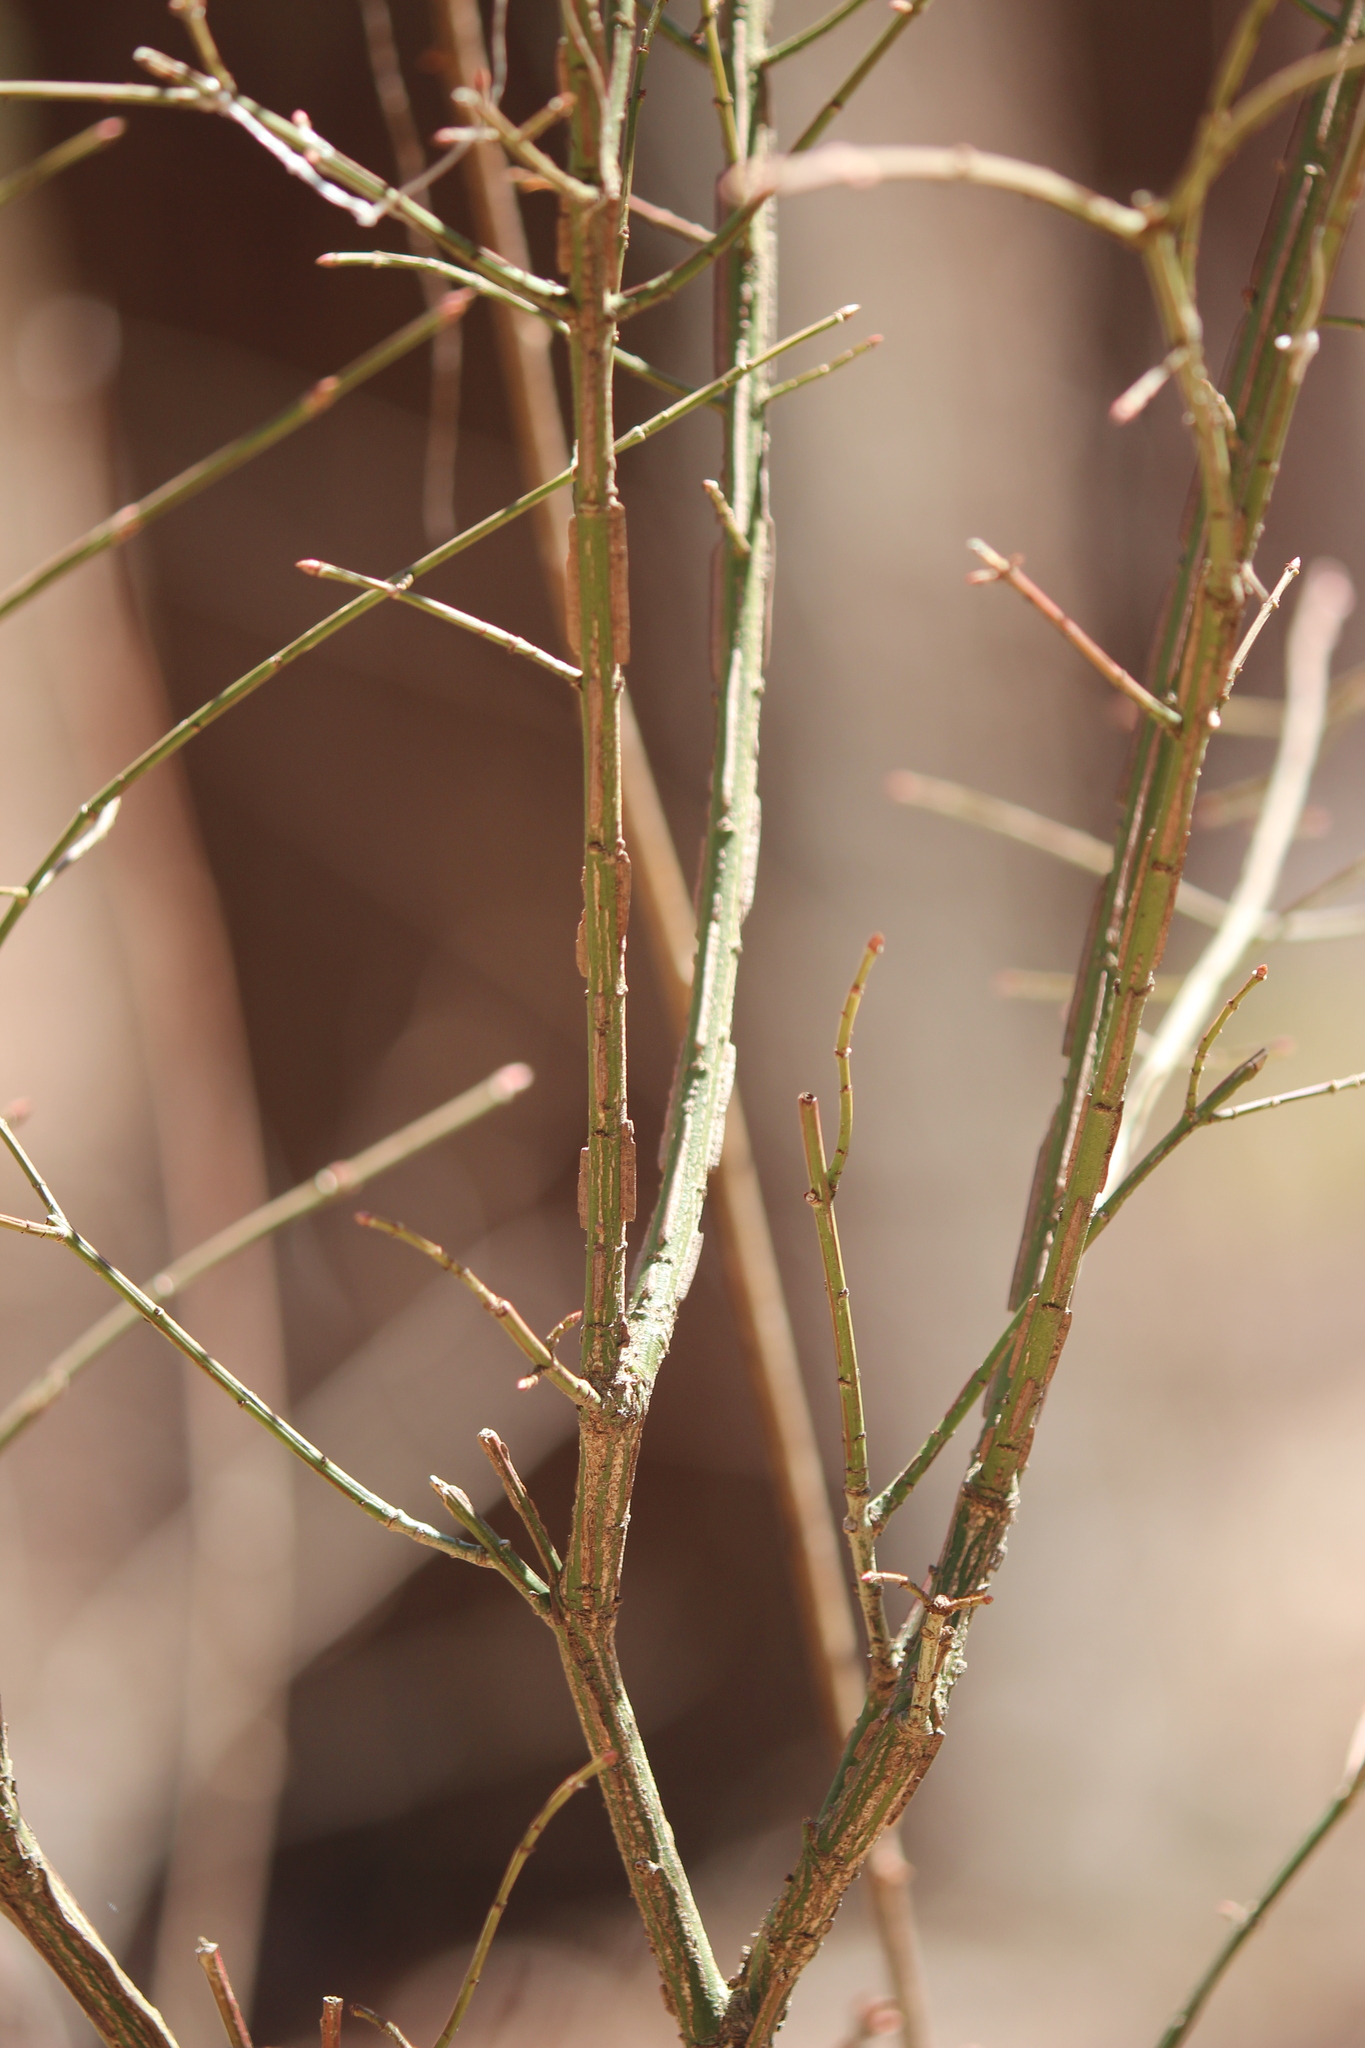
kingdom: Plantae
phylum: Tracheophyta
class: Magnoliopsida
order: Celastrales
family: Celastraceae
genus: Euonymus
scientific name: Euonymus alatus
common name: Winged euonymus
